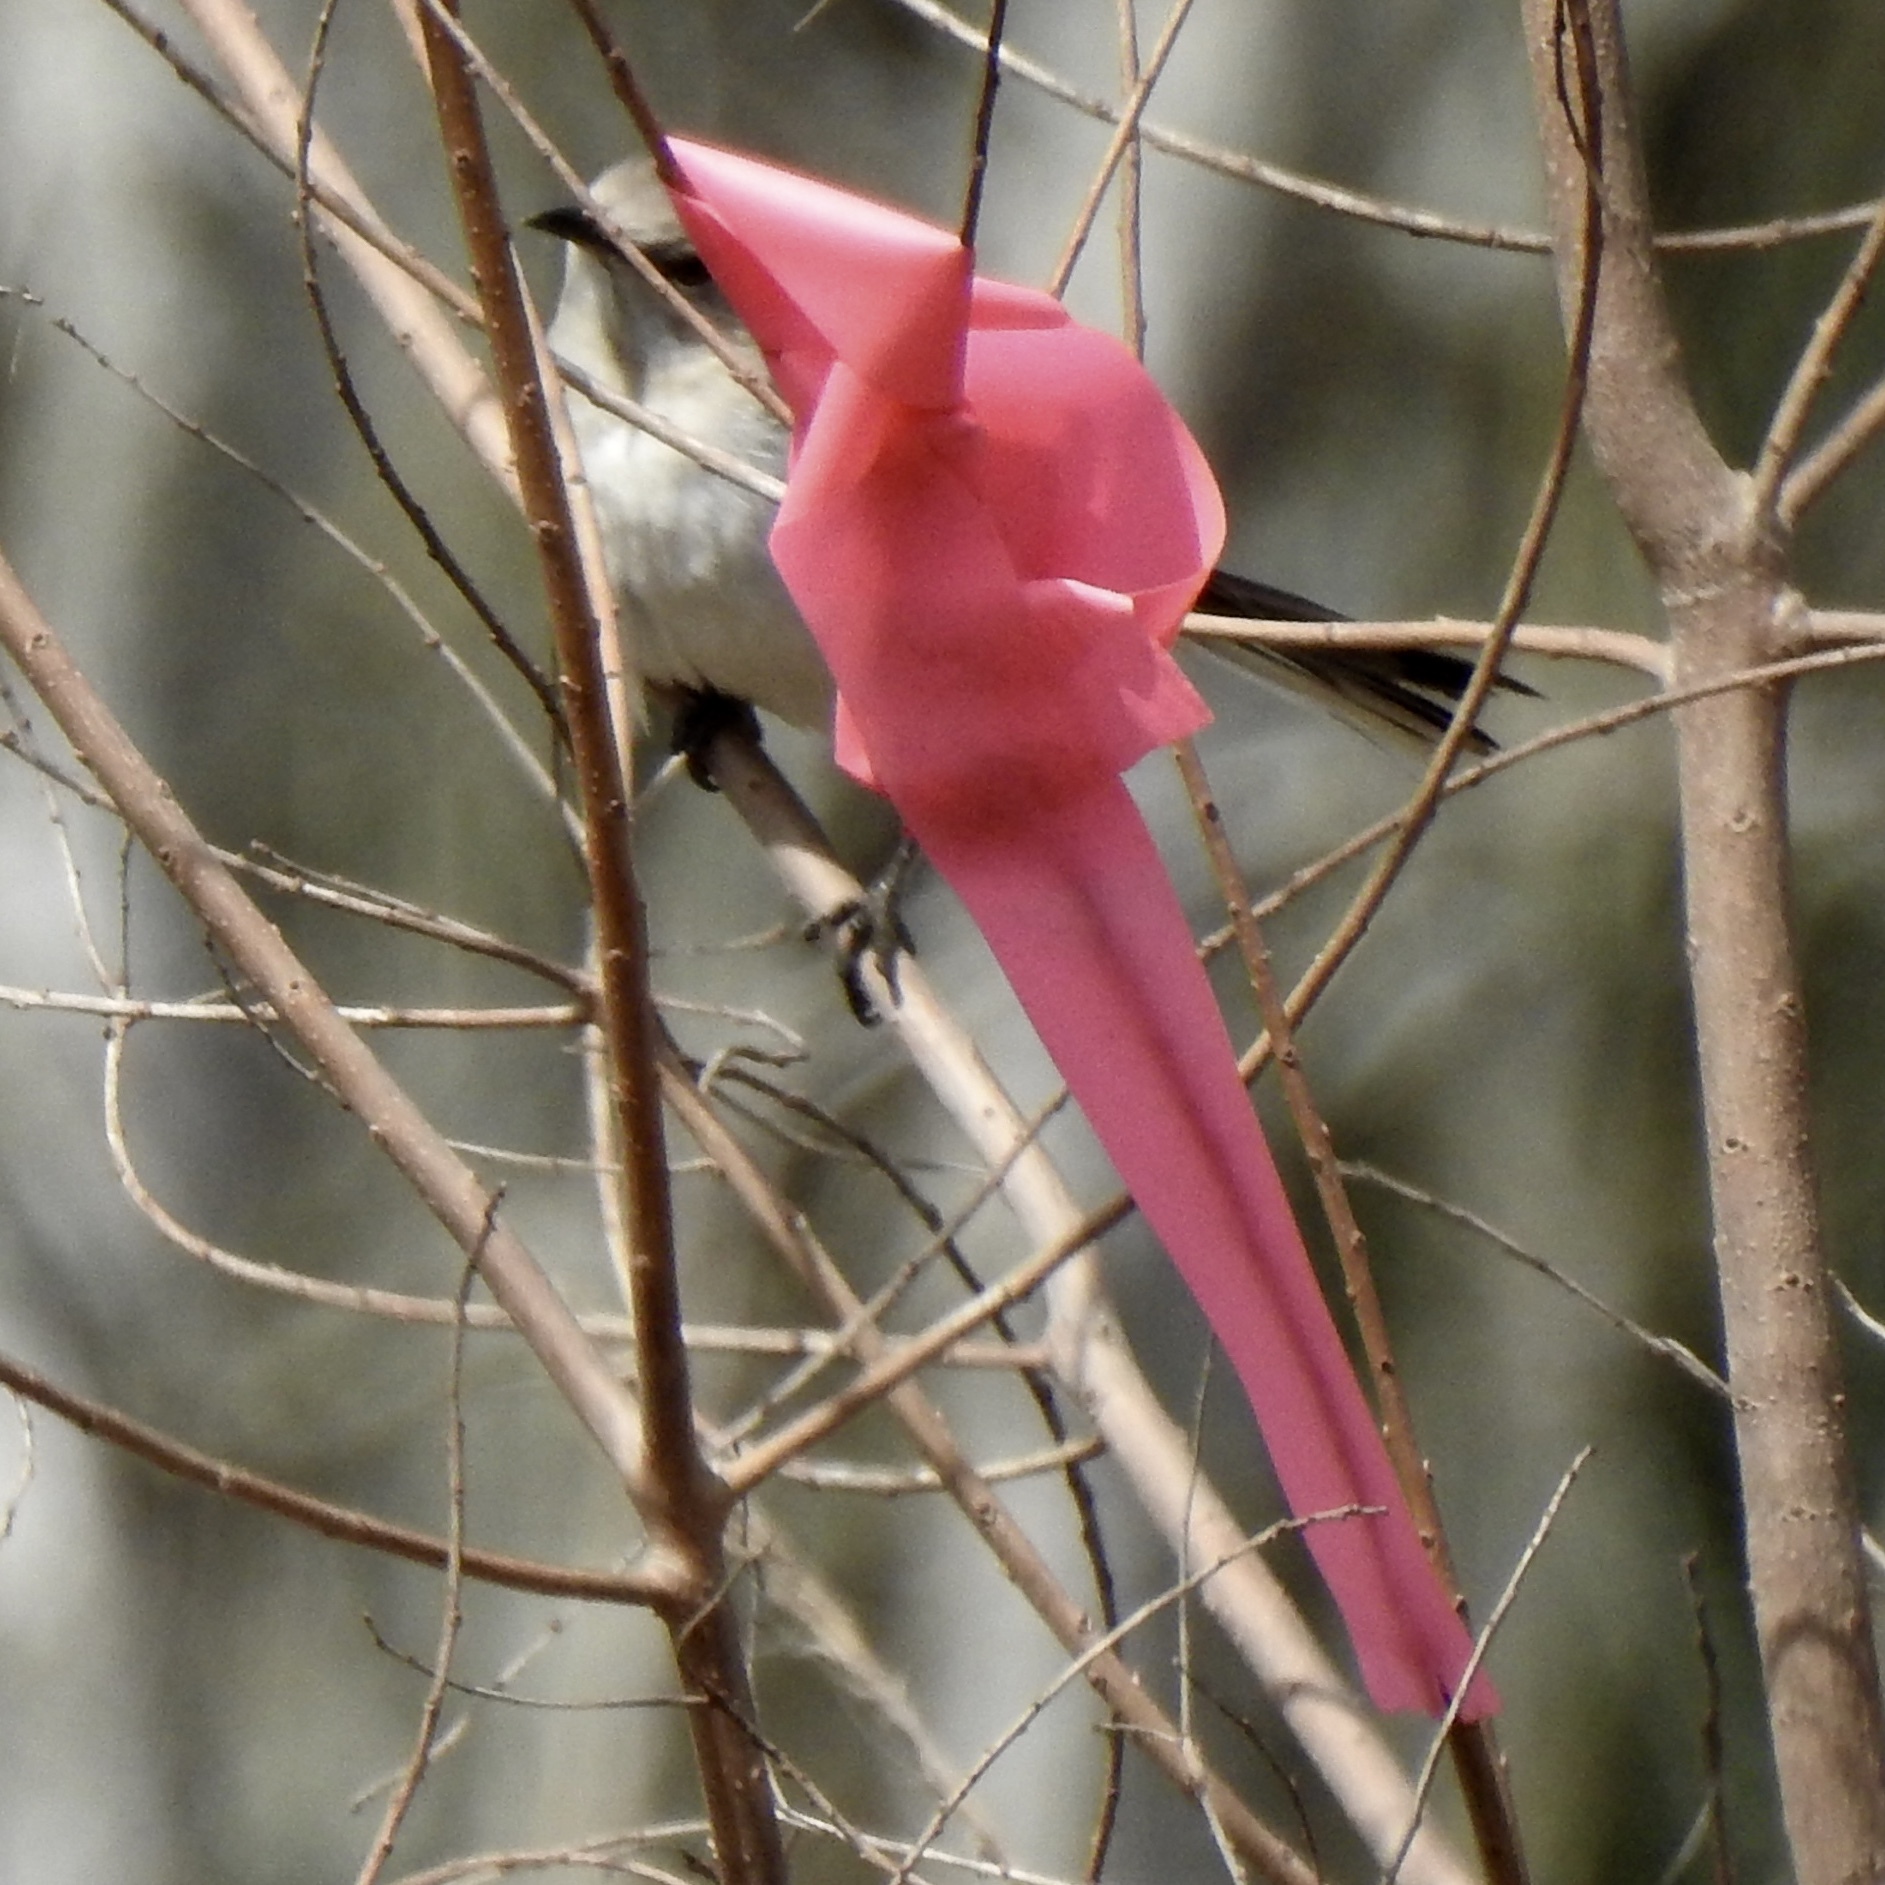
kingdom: Animalia
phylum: Chordata
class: Aves
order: Passeriformes
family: Mimidae
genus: Mimus
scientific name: Mimus polyglottos
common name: Northern mockingbird
